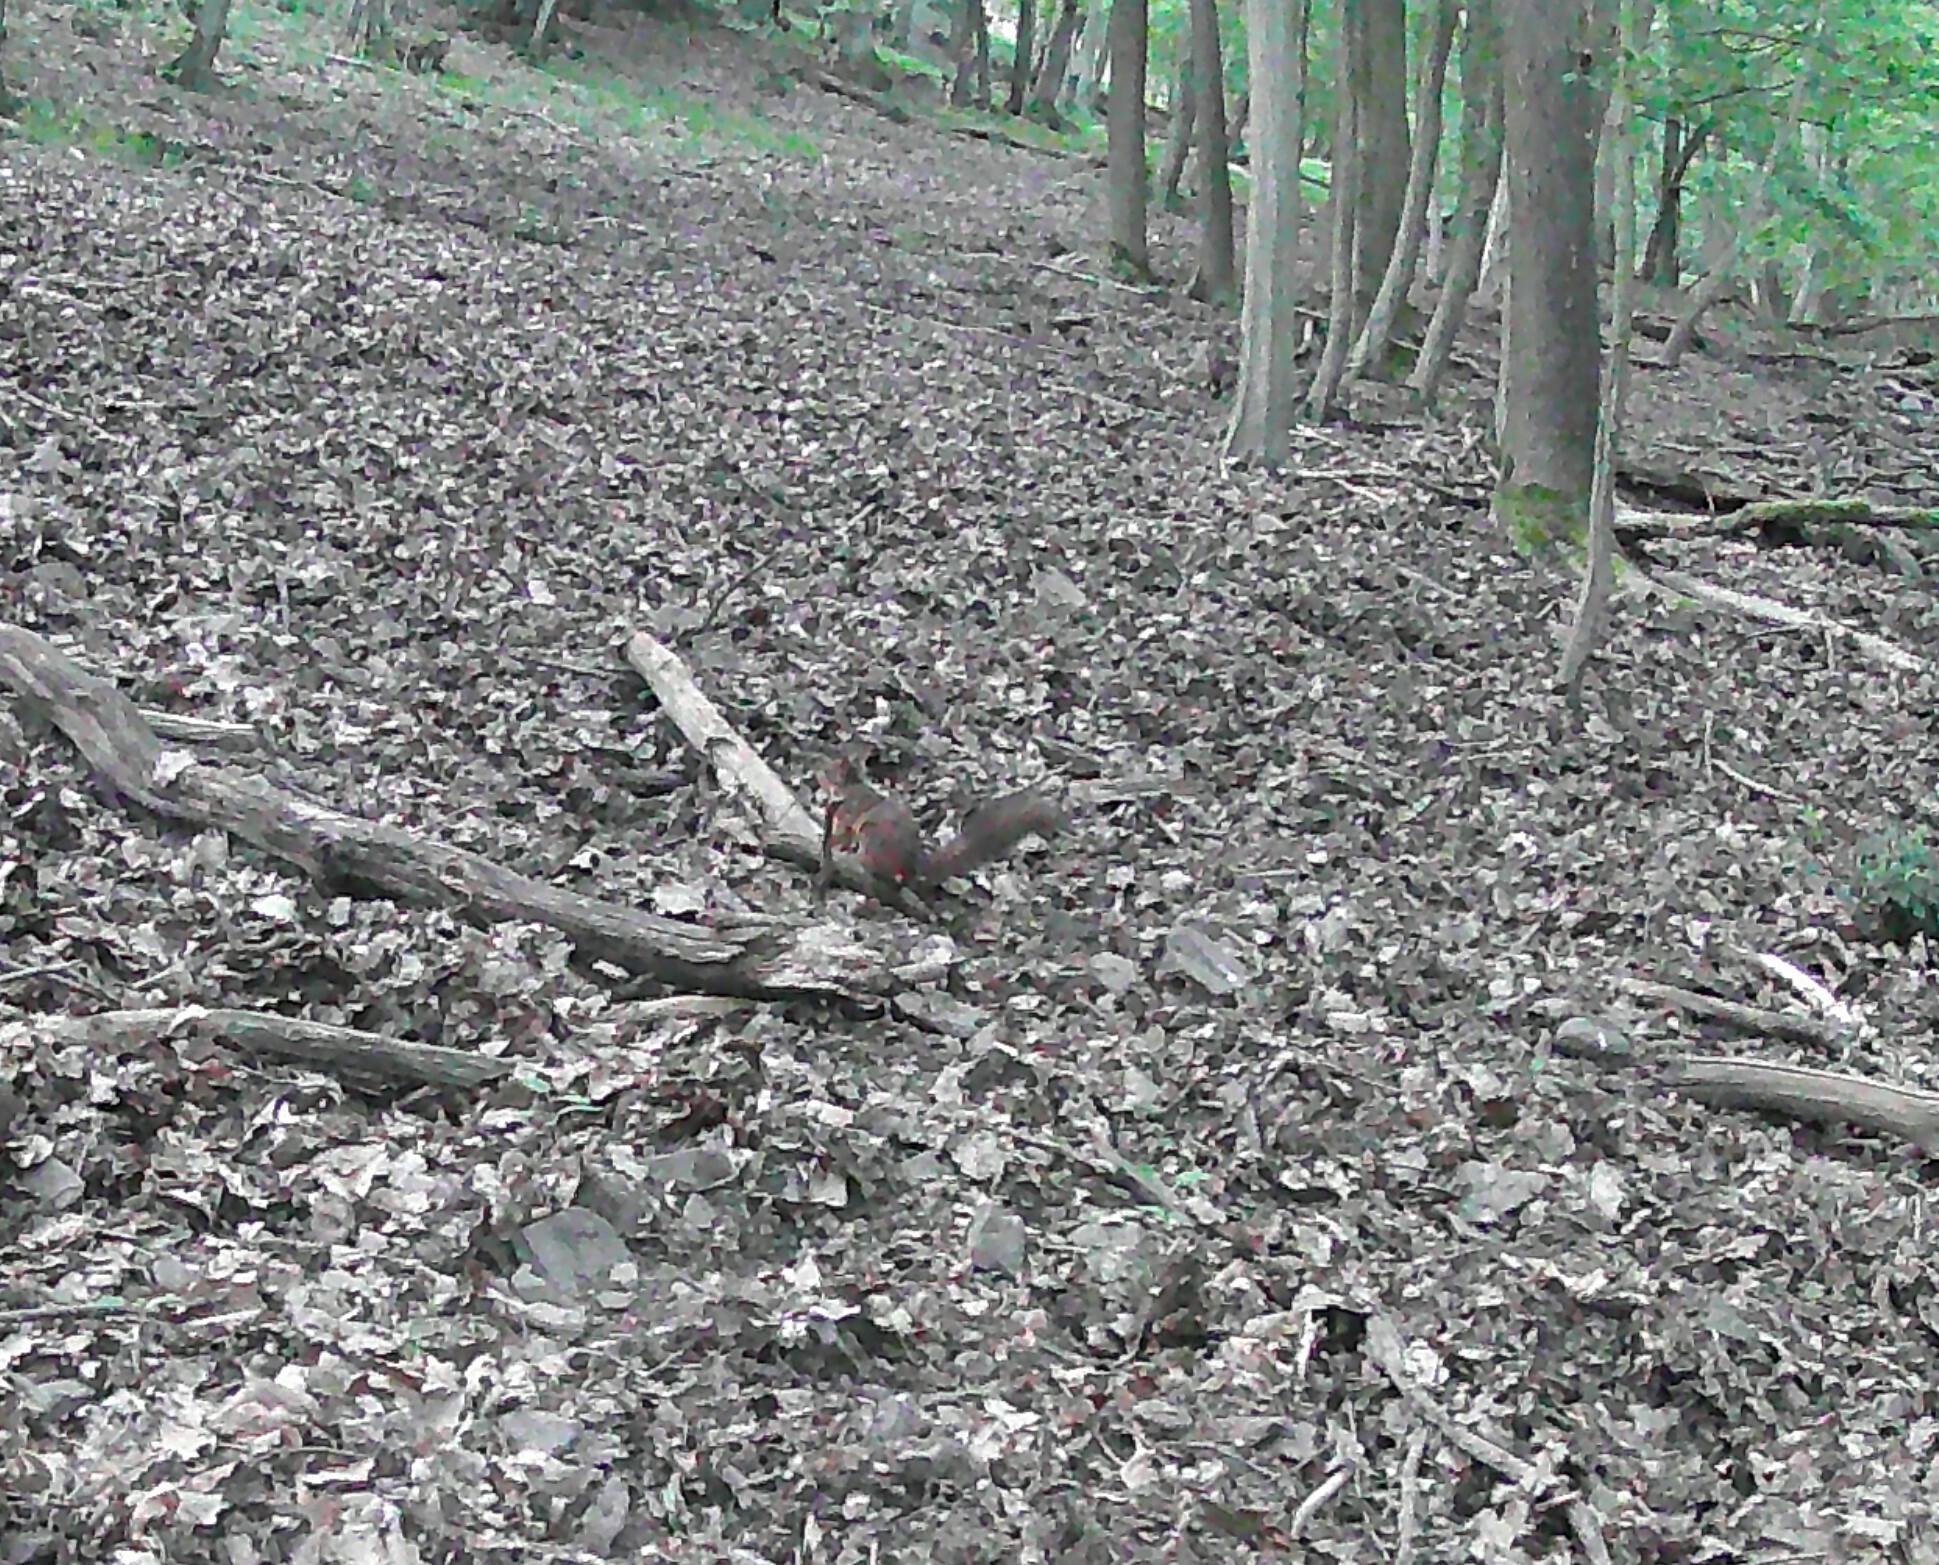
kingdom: Animalia
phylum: Chordata
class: Mammalia
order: Rodentia
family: Sciuridae
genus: Sciurus
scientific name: Sciurus vulgaris
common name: Eurasian red squirrel
